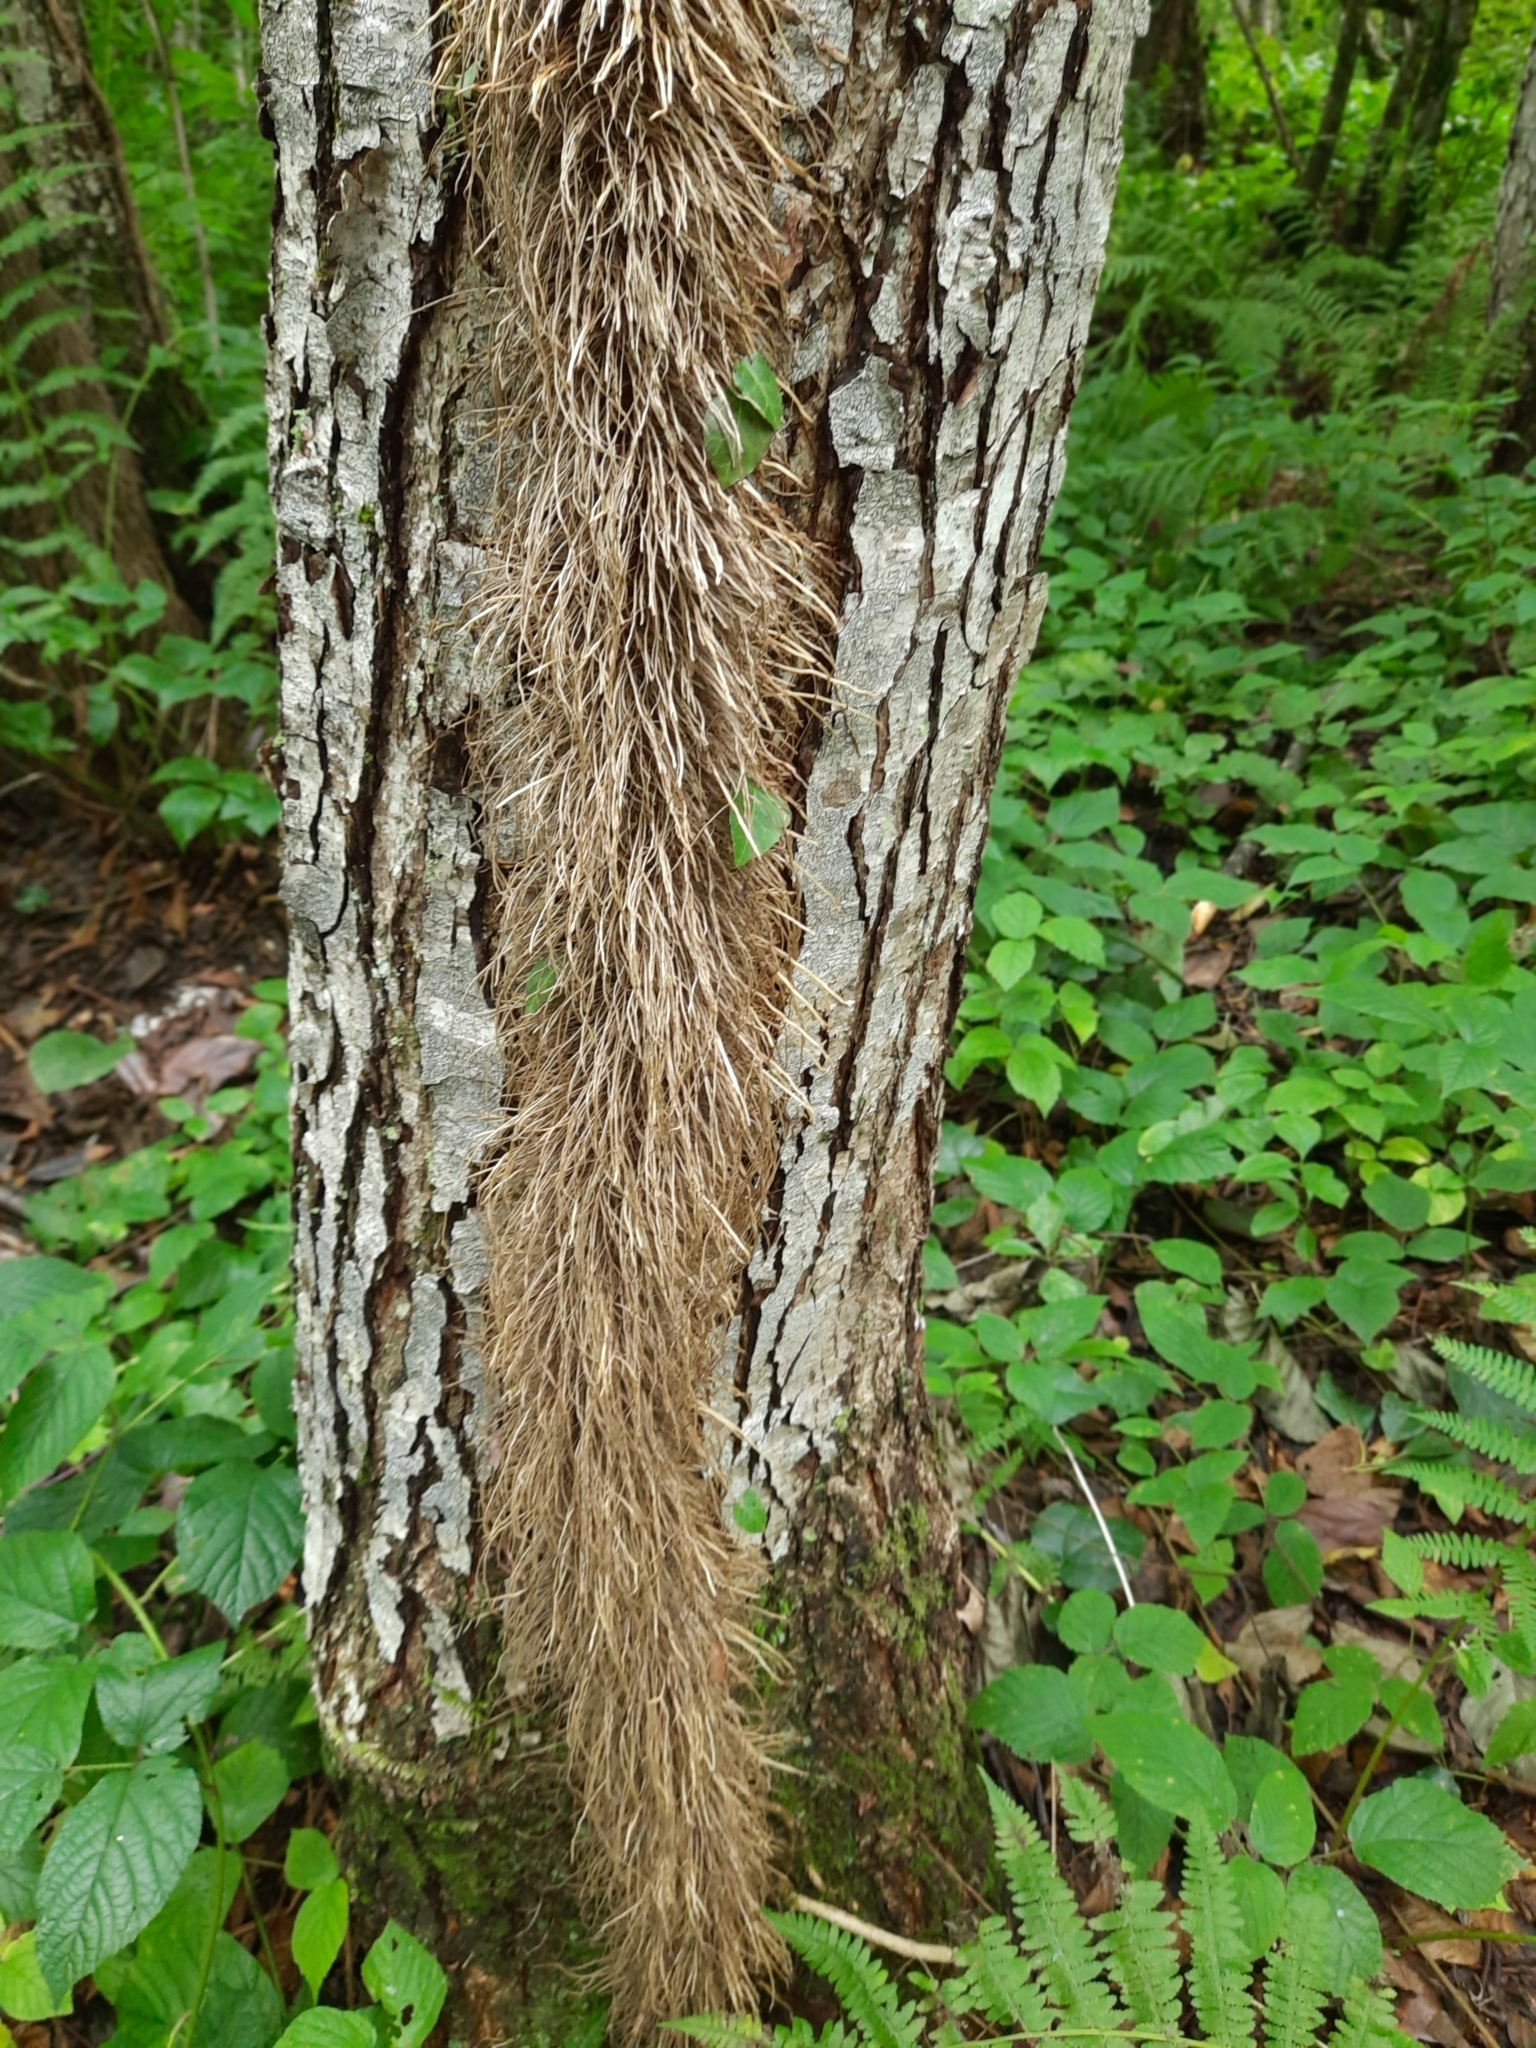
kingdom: Plantae
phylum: Tracheophyta
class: Magnoliopsida
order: Apiales
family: Araliaceae
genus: Hedera
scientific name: Hedera colchica
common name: Persian ivy
